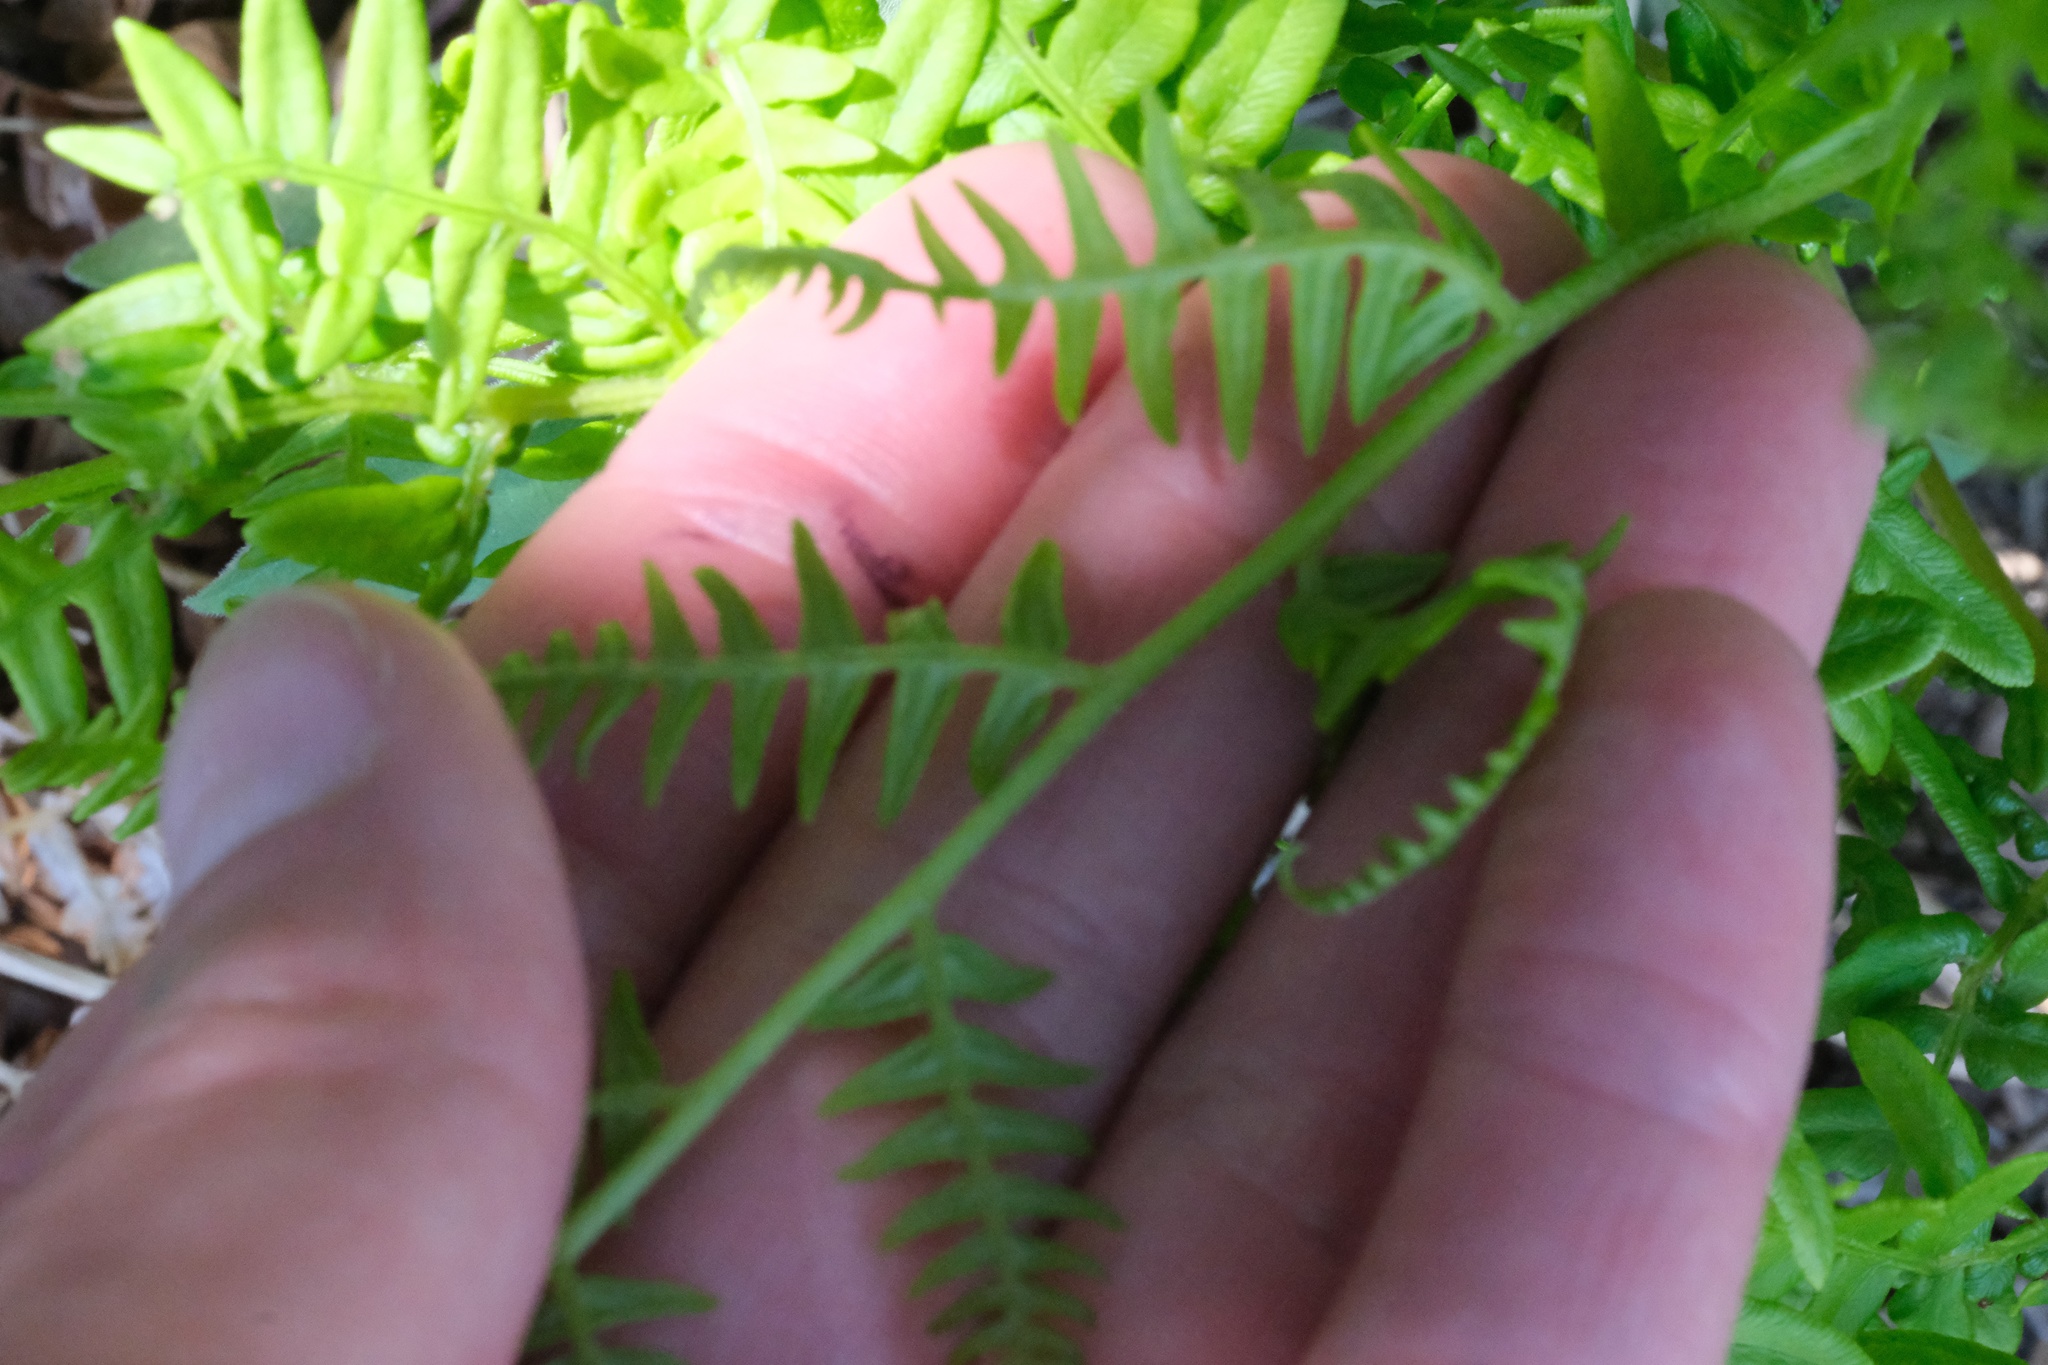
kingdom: Plantae
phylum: Tracheophyta
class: Polypodiopsida
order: Polypodiales
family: Dennstaedtiaceae
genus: Pteridium
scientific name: Pteridium aquilinum
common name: Bracken
